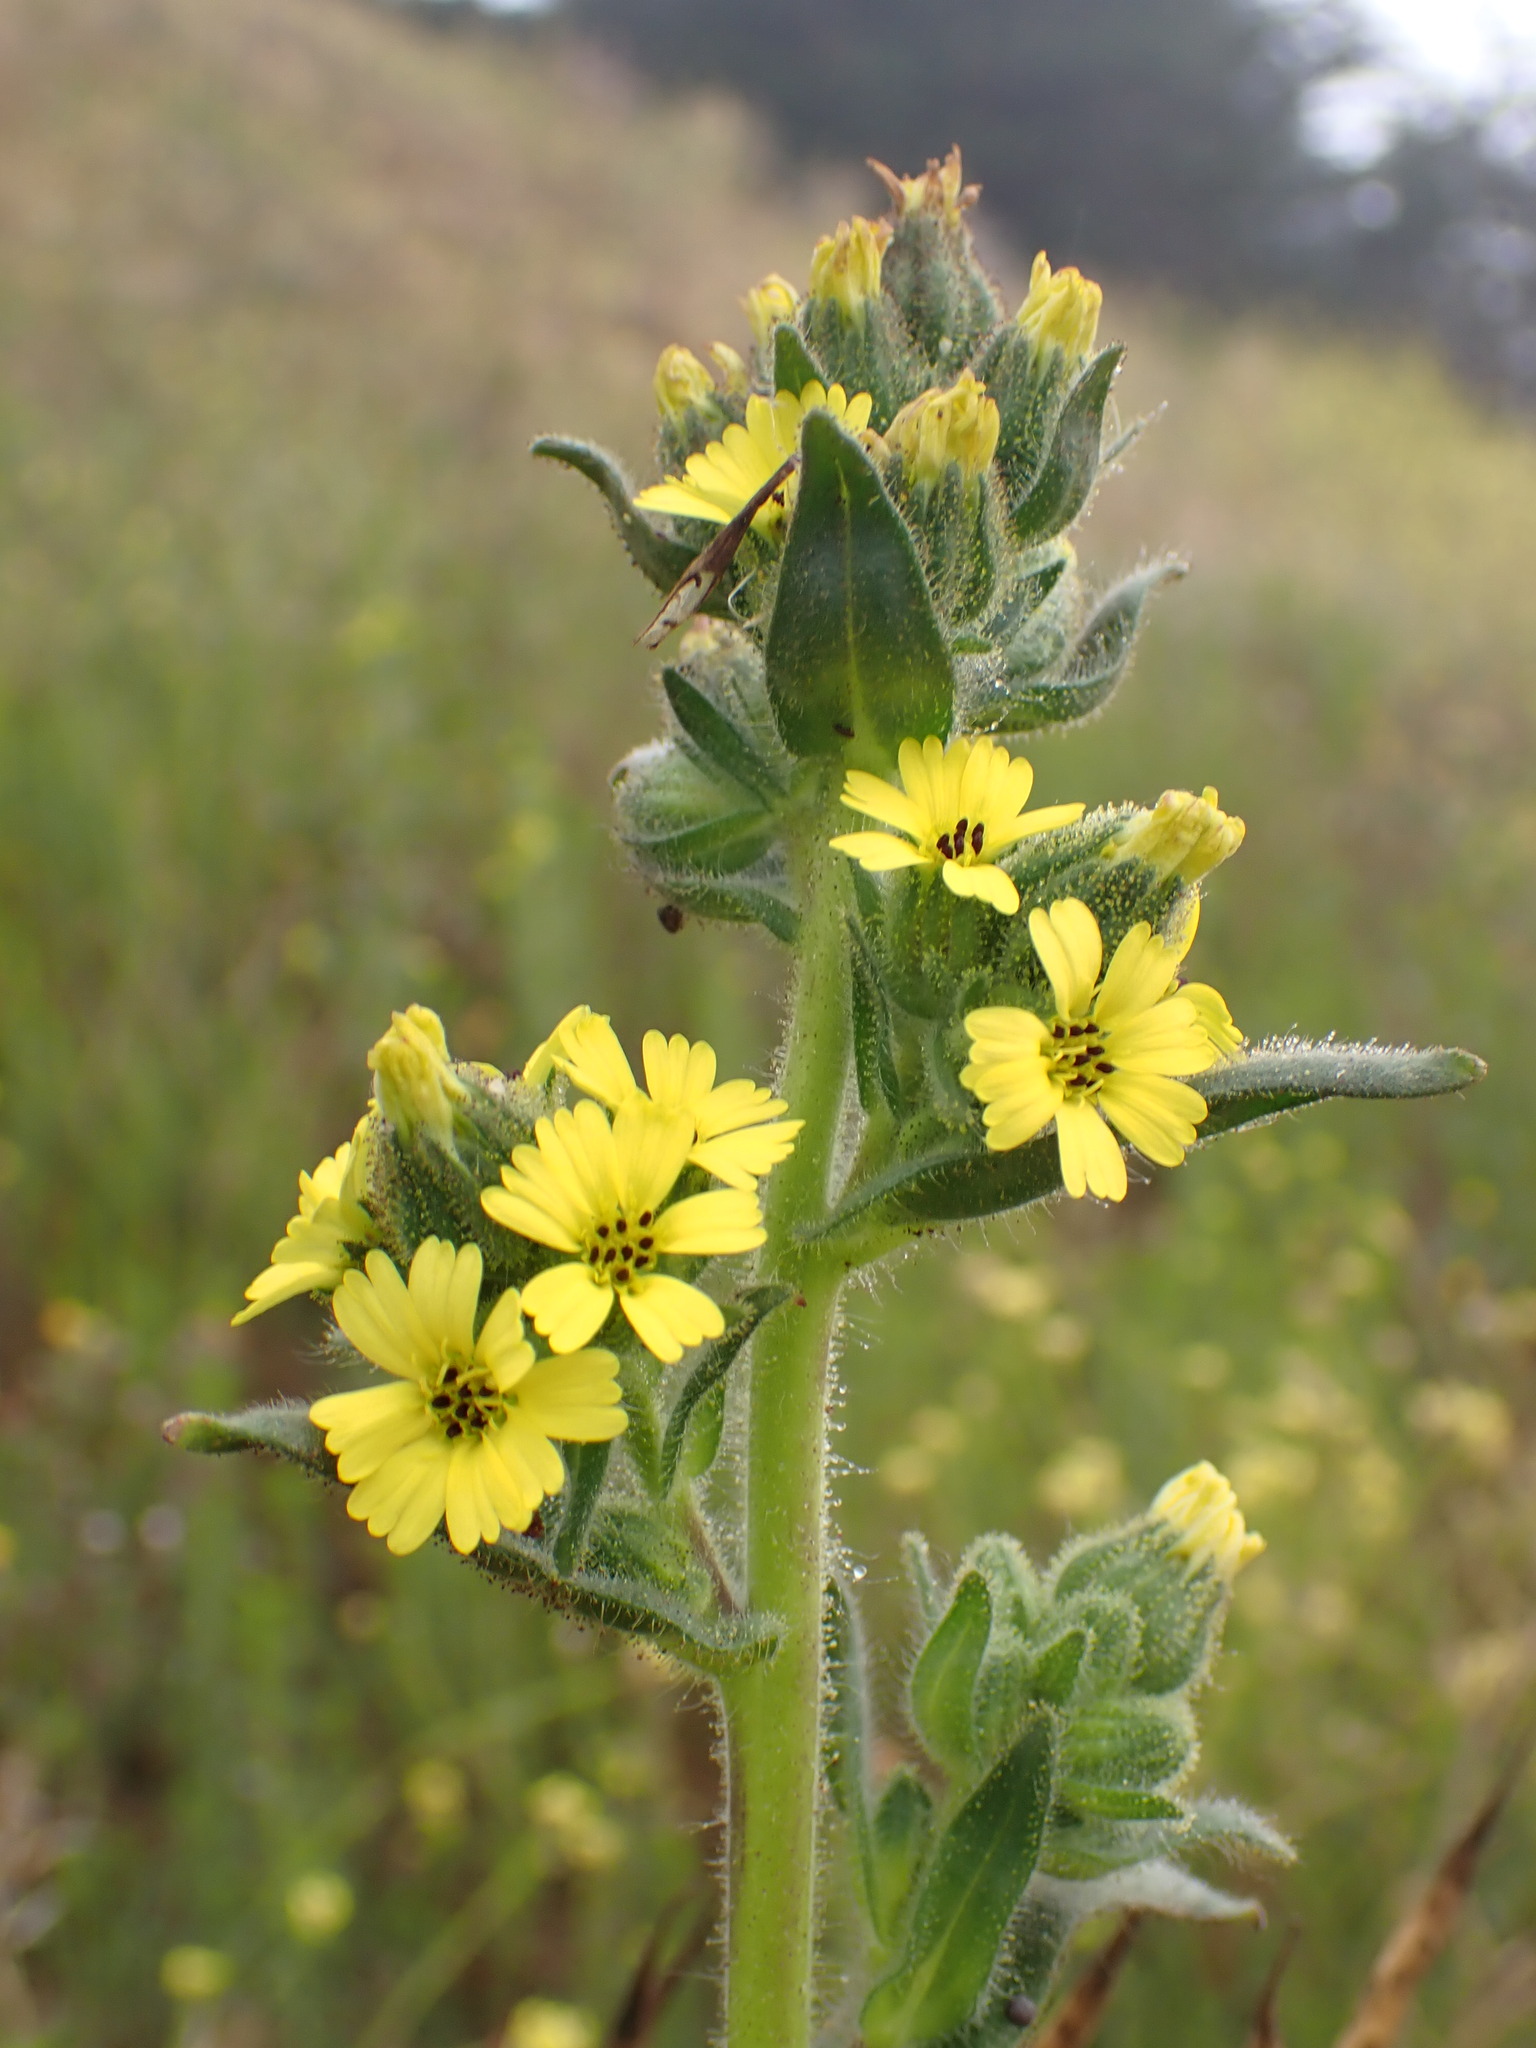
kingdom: Plantae
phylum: Tracheophyta
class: Magnoliopsida
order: Asterales
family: Asteraceae
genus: Madia
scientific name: Madia sativa
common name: Coast tarweed
